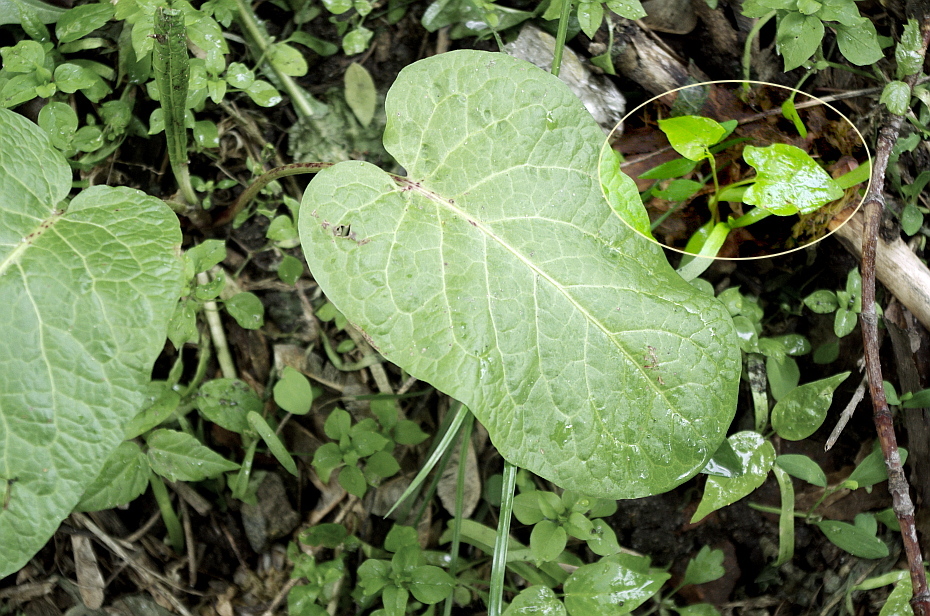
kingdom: Plantae
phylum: Tracheophyta
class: Magnoliopsida
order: Caryophyllales
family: Polygonaceae
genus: Fallopia
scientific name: Fallopia convolvulus
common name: Black bindweed
